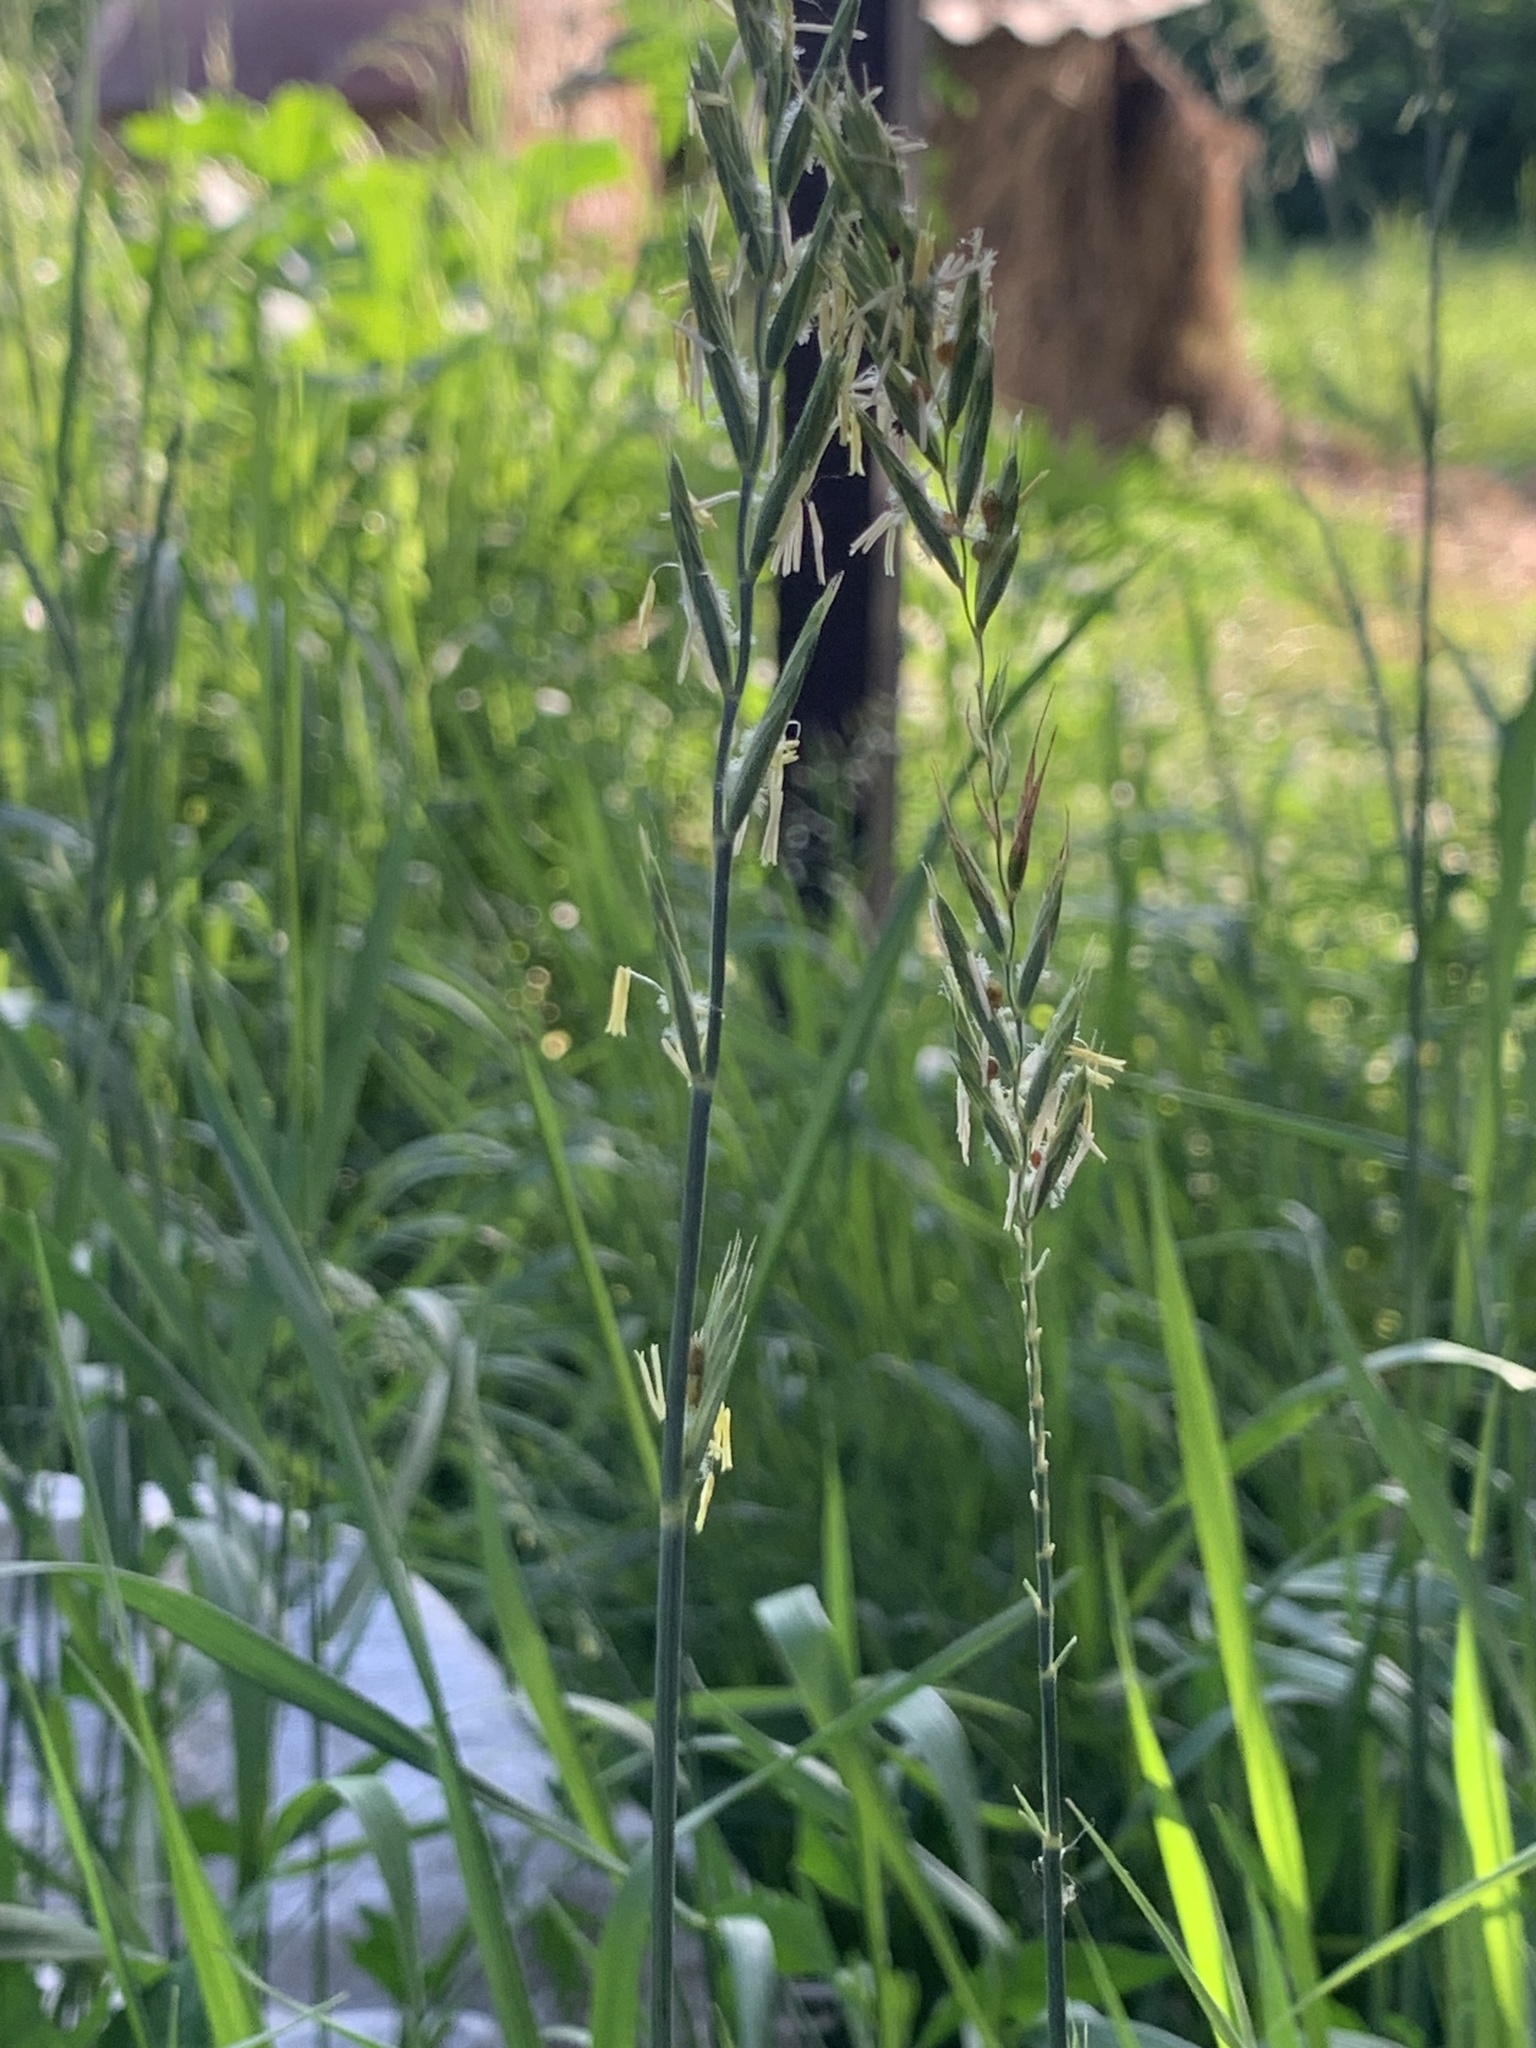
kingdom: Plantae
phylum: Tracheophyta
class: Liliopsida
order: Poales
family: Poaceae
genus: Elymus
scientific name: Elymus repens
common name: Quackgrass
